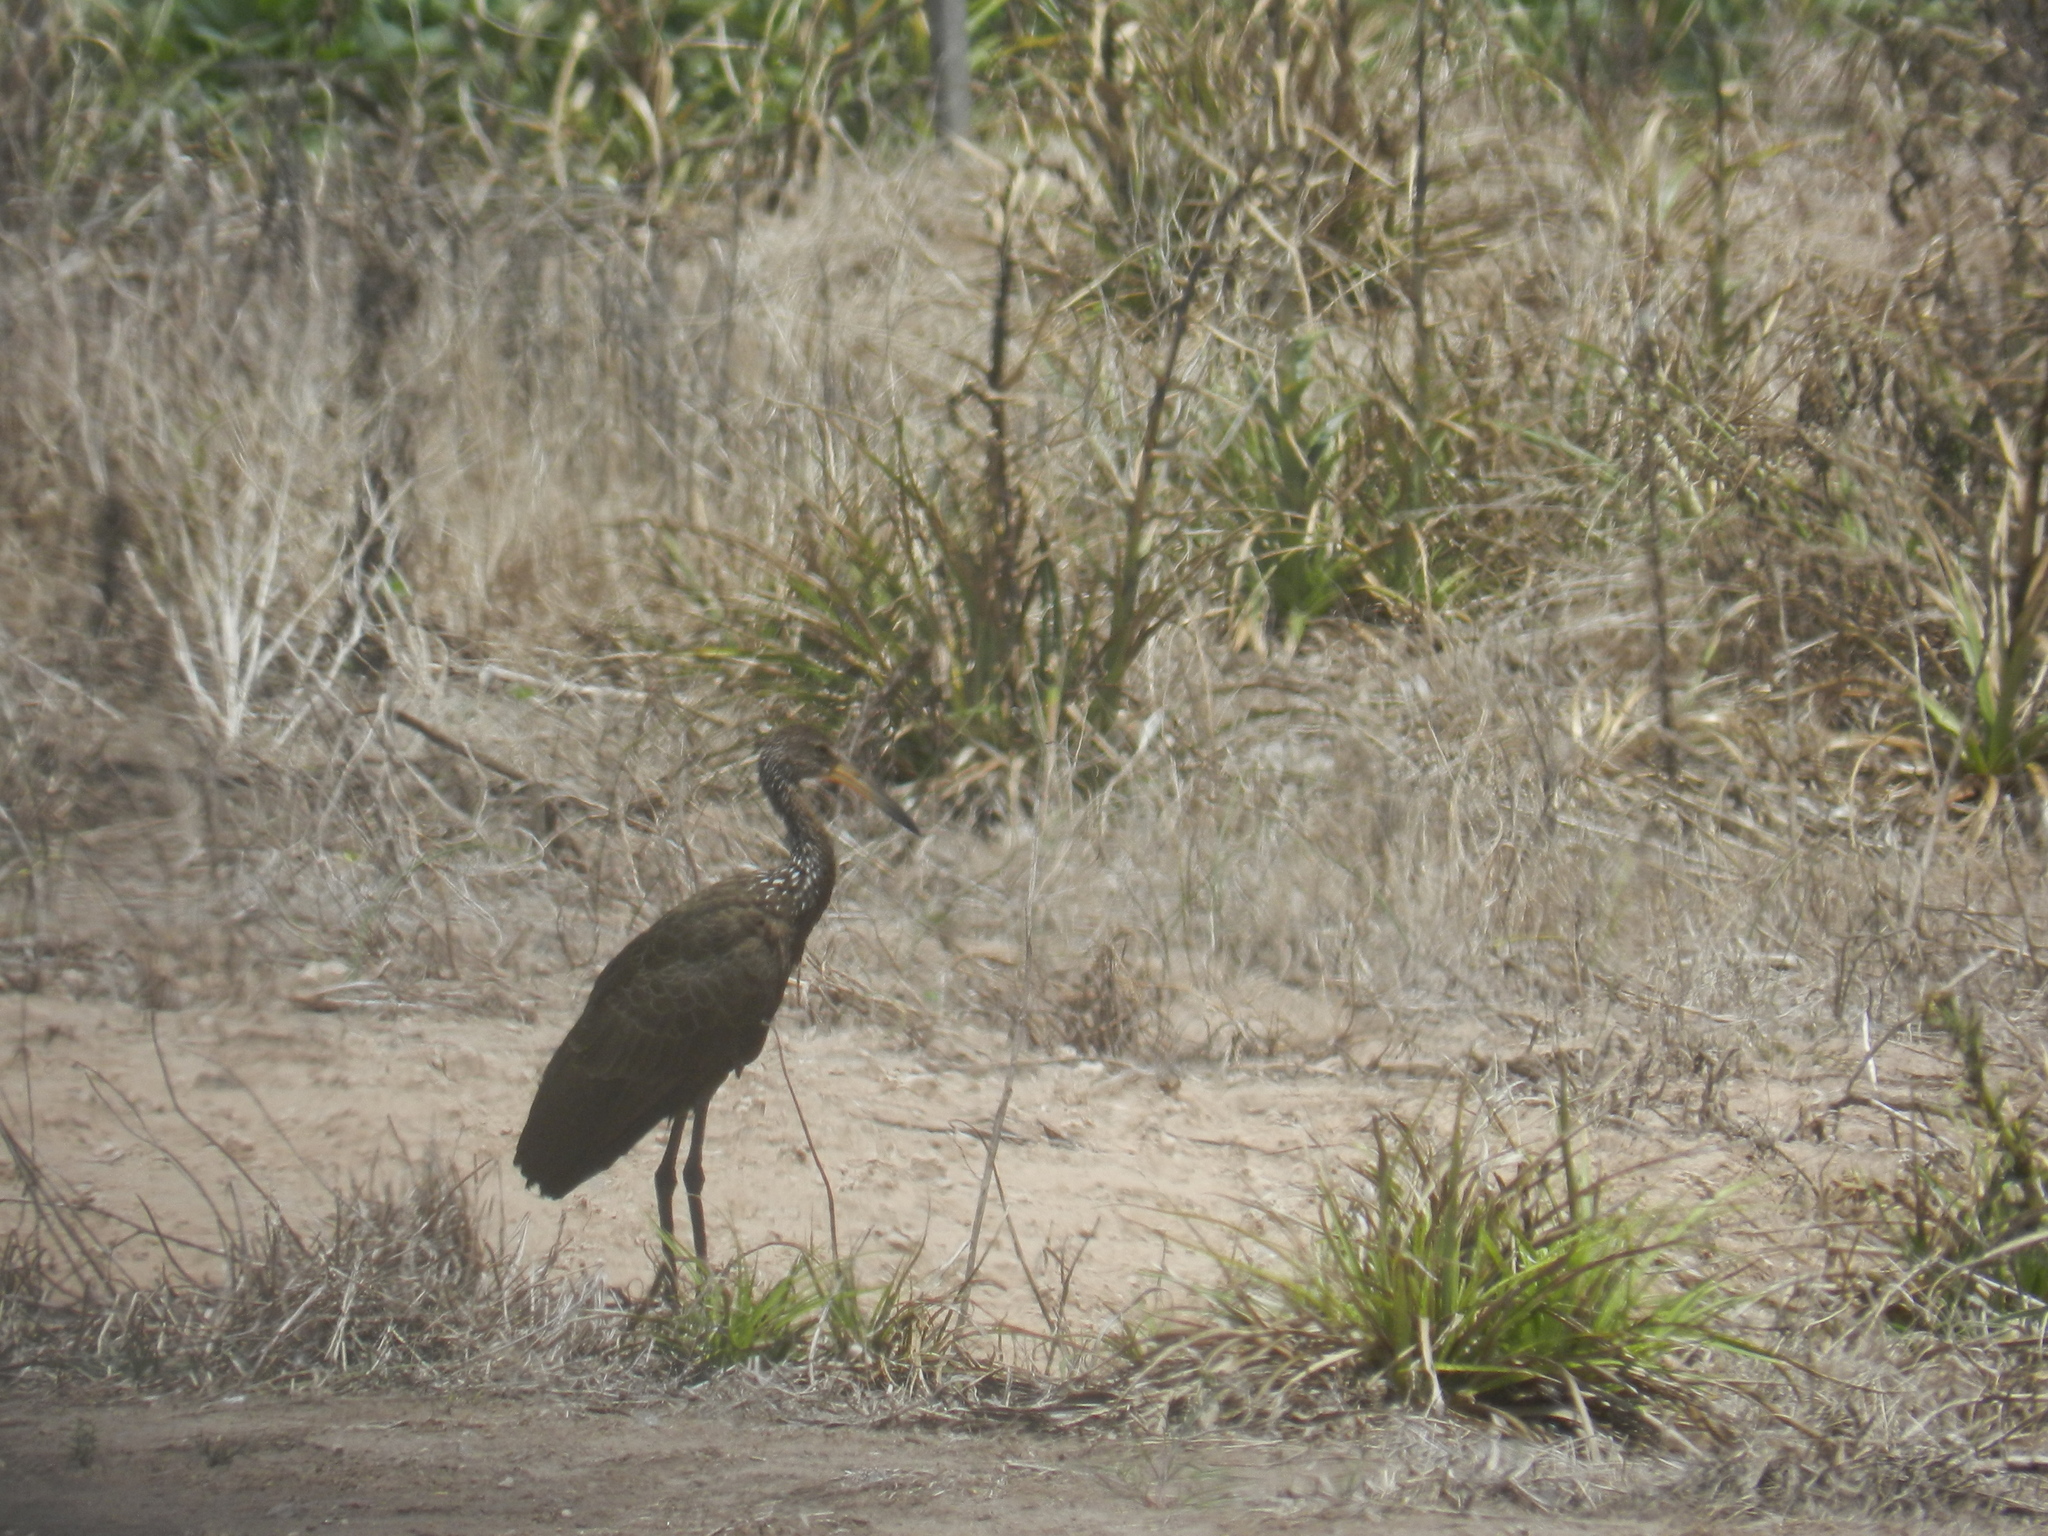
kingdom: Animalia
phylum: Chordata
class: Aves
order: Gruiformes
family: Aramidae
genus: Aramus
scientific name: Aramus guarauna
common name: Limpkin
